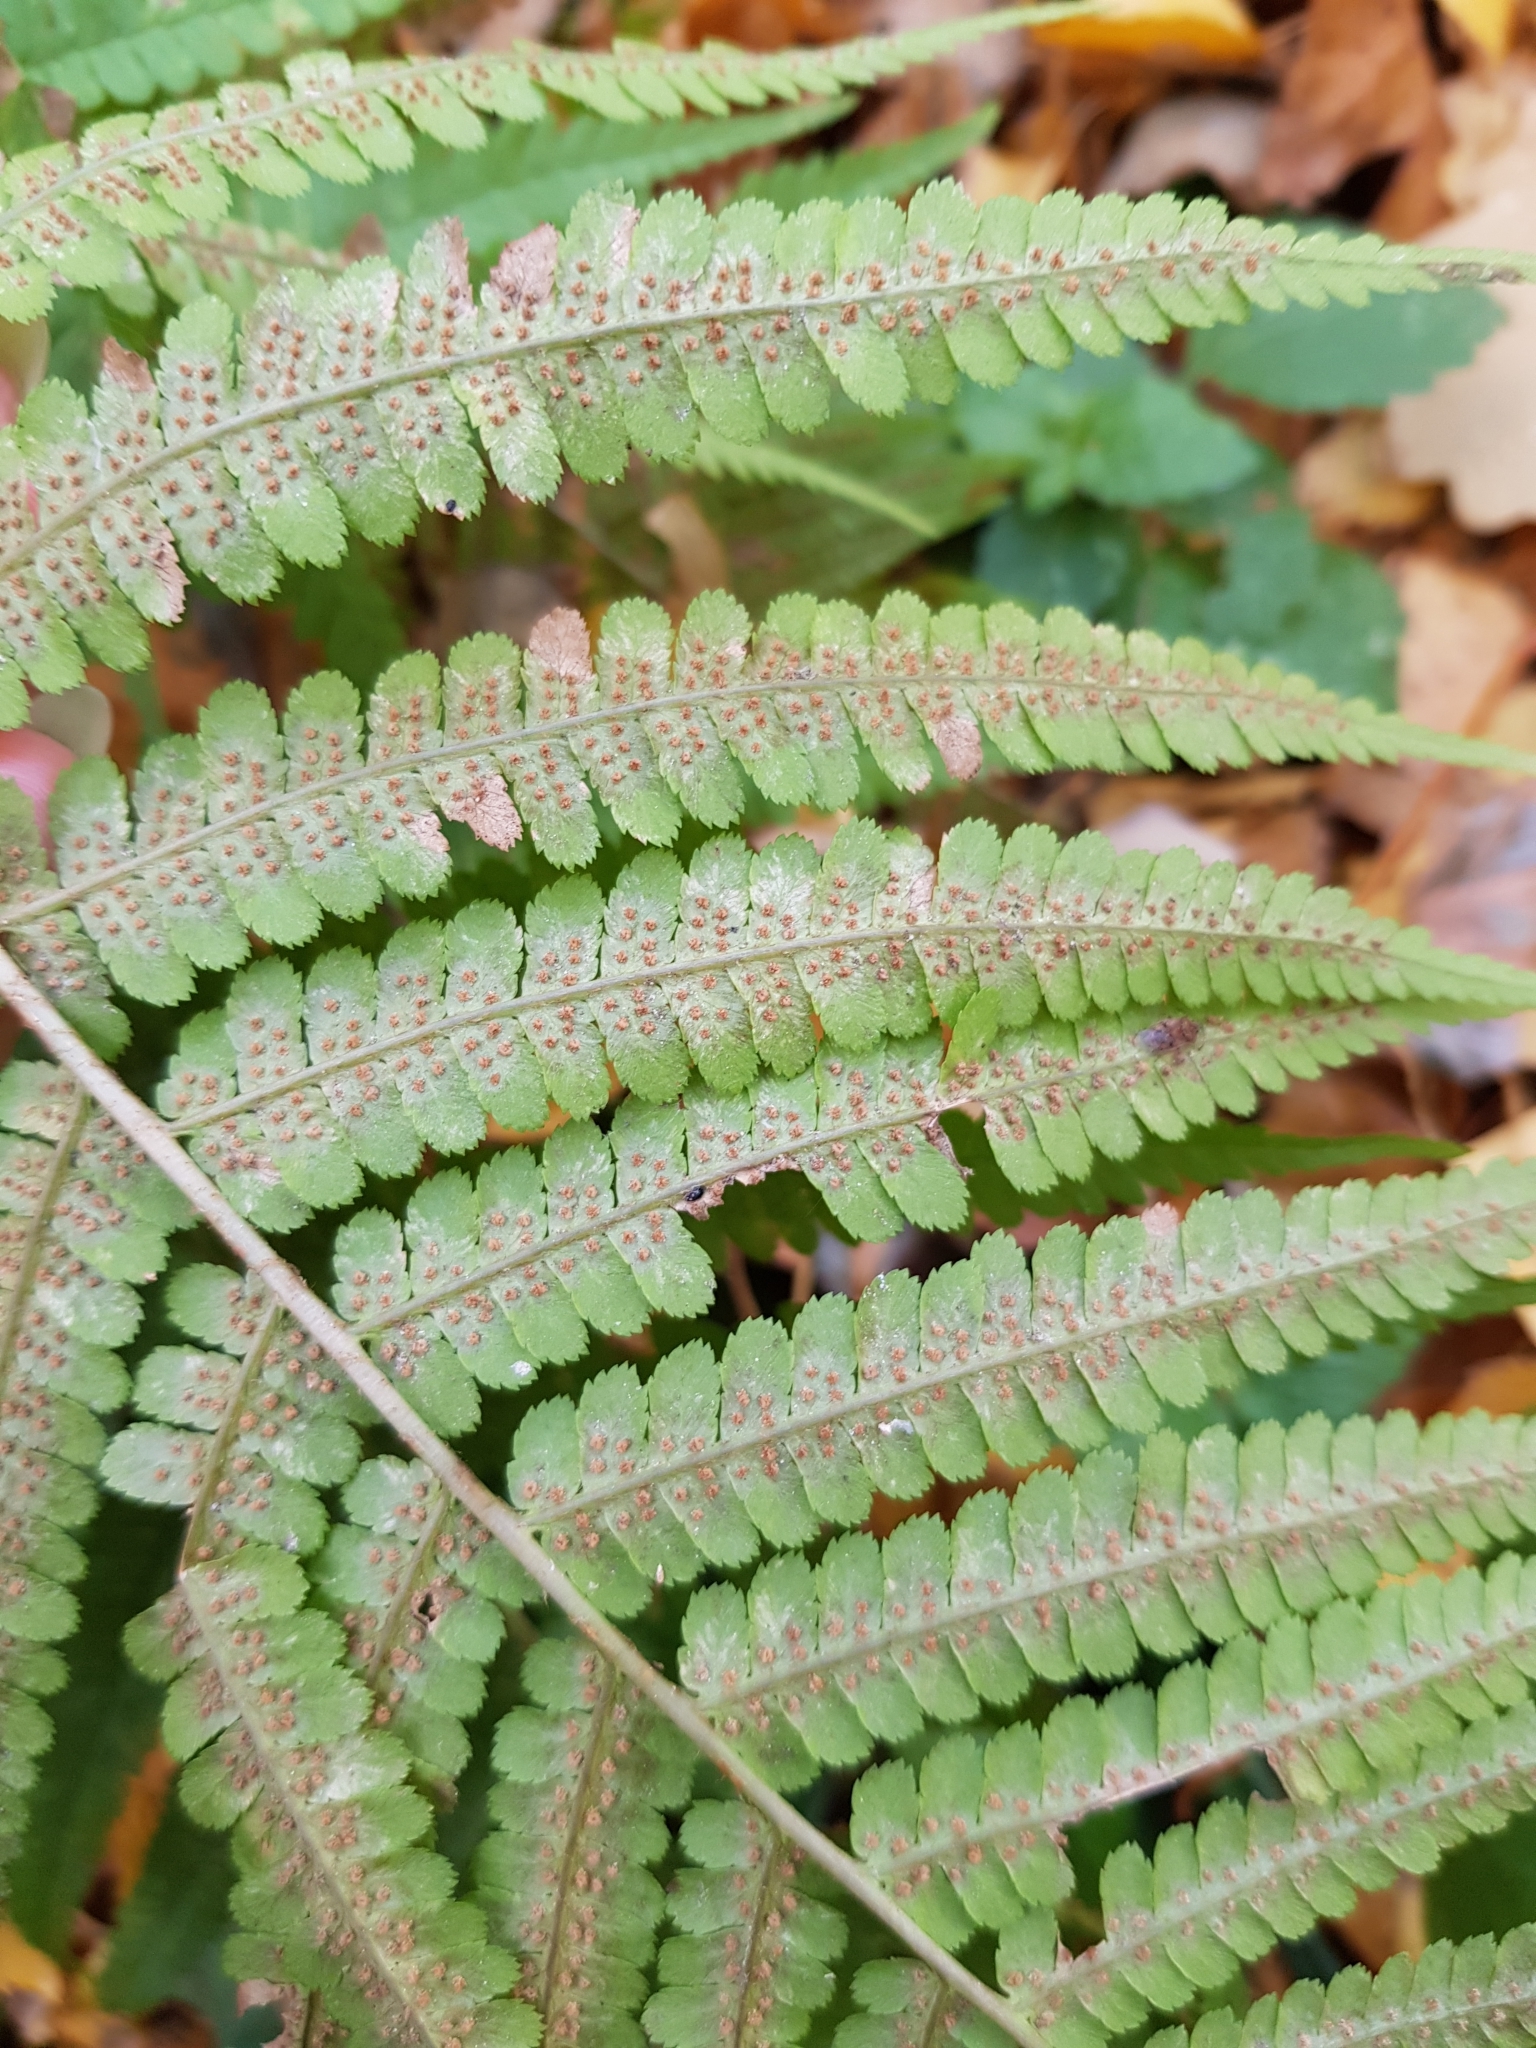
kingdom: Plantae
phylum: Tracheophyta
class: Polypodiopsida
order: Polypodiales
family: Dryopteridaceae
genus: Dryopteris
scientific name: Dryopteris filix-mas
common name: Male fern
